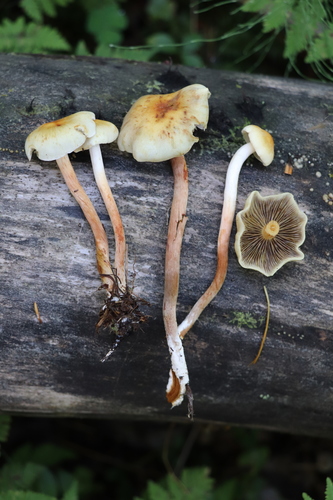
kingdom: Fungi
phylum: Basidiomycota
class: Agaricomycetes
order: Agaricales
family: Strophariaceae
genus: Hypholoma
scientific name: Hypholoma capnoides
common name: Conifer tuft
